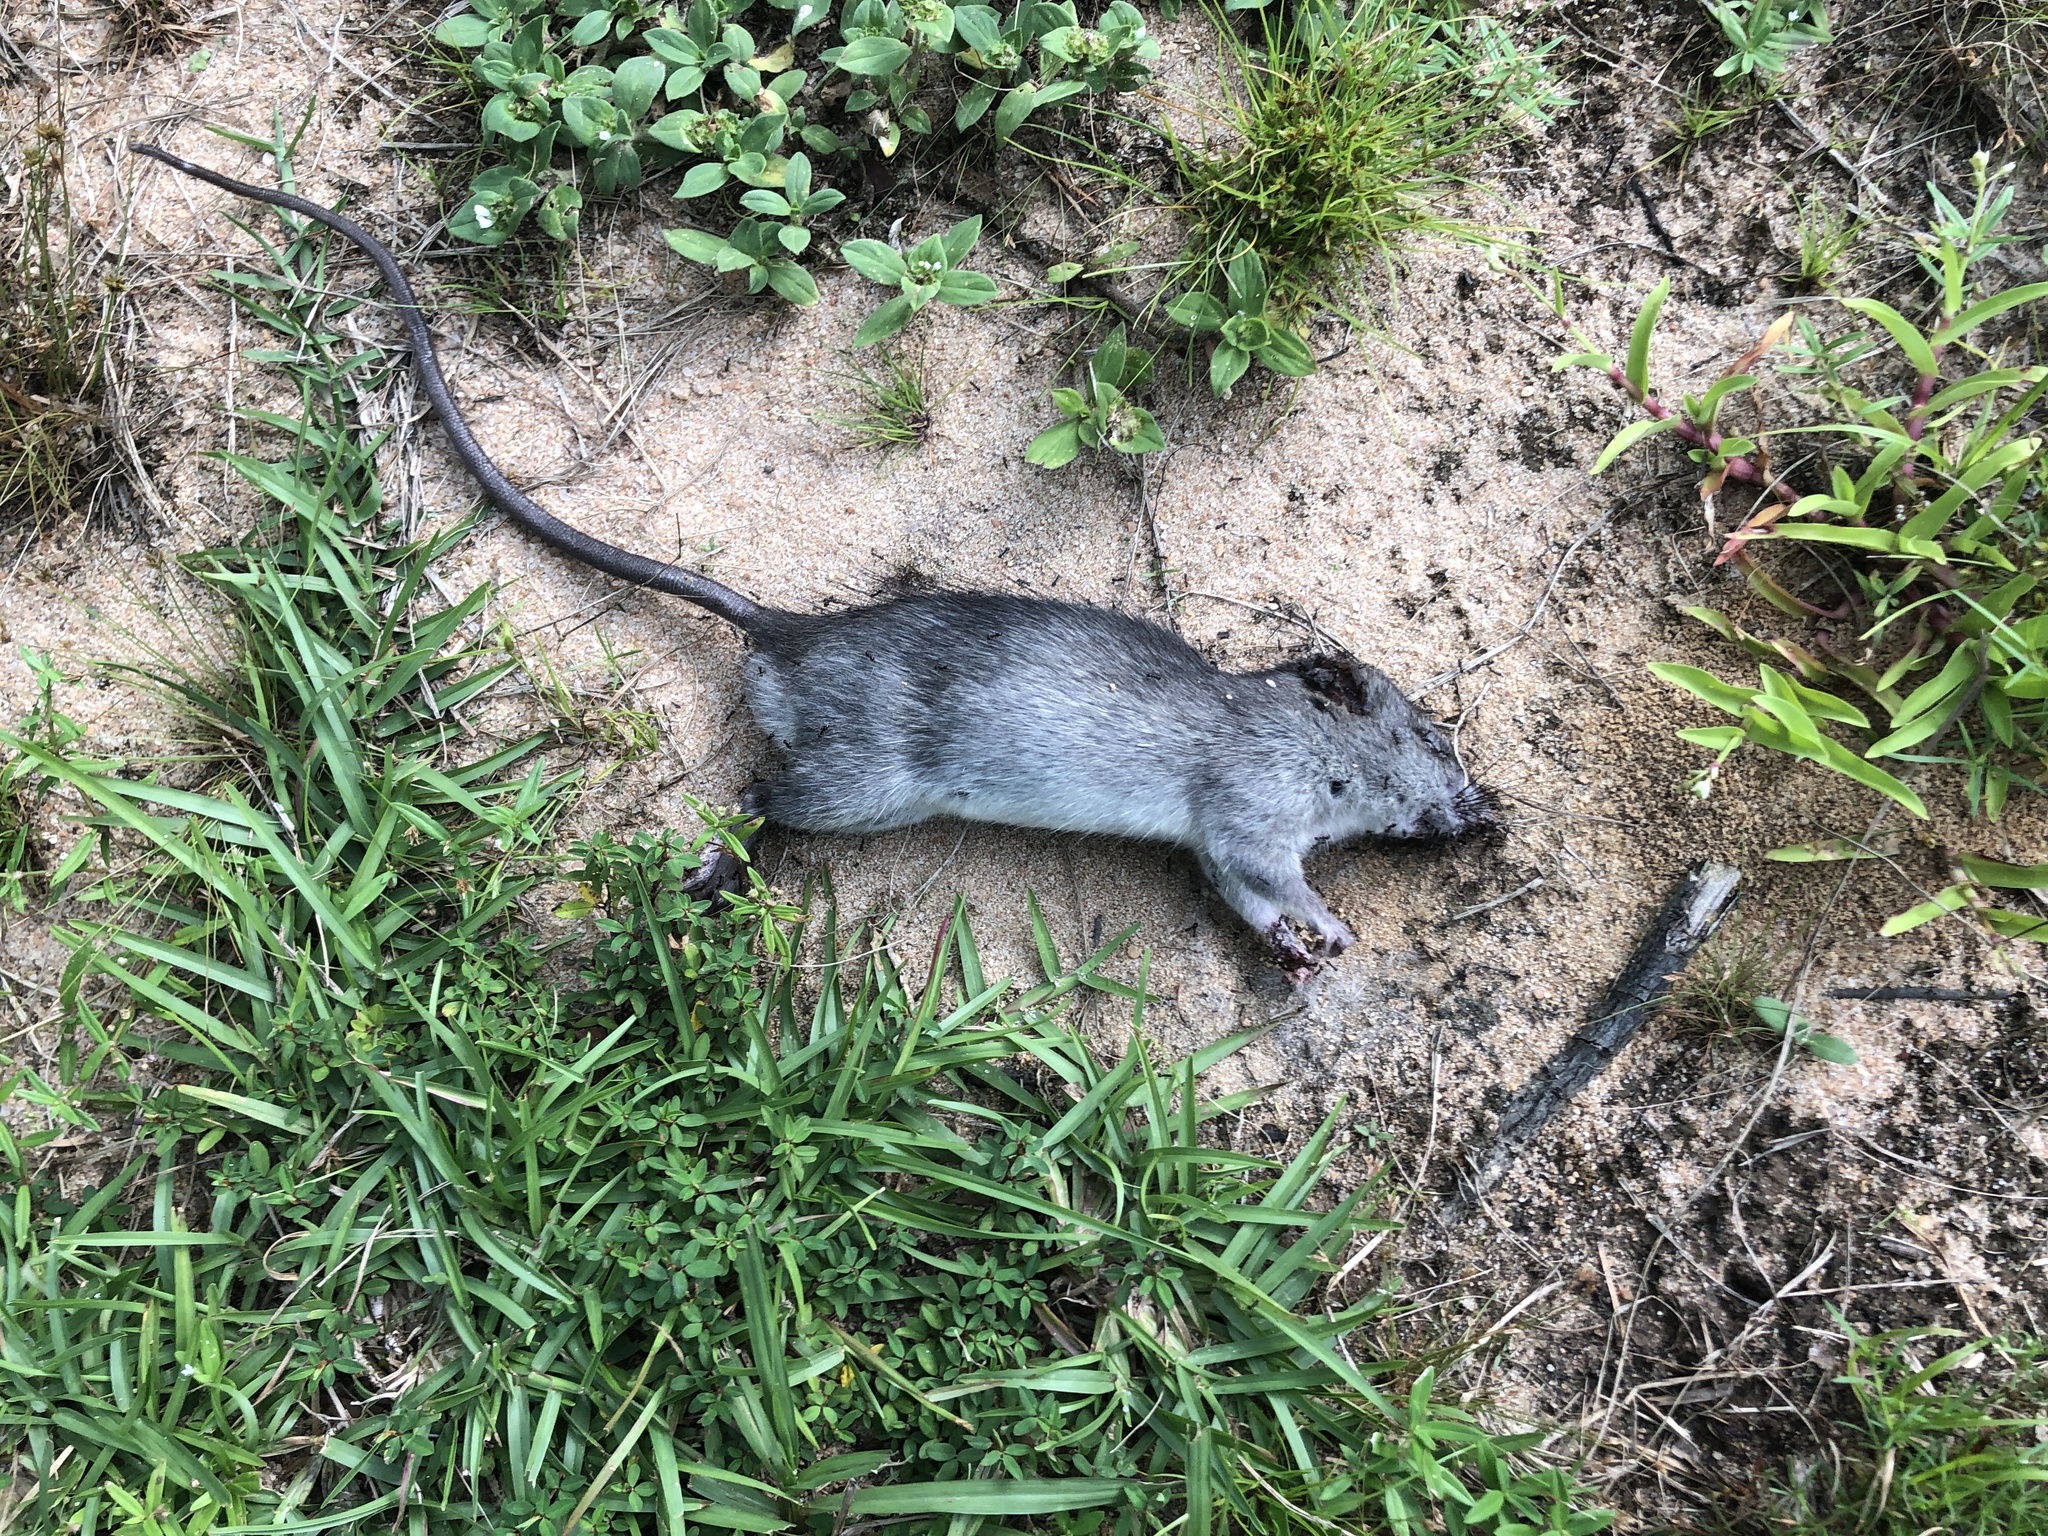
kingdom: Animalia
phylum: Chordata
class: Mammalia
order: Rodentia
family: Muridae
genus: Rattus
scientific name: Rattus rattus
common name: Black rat
